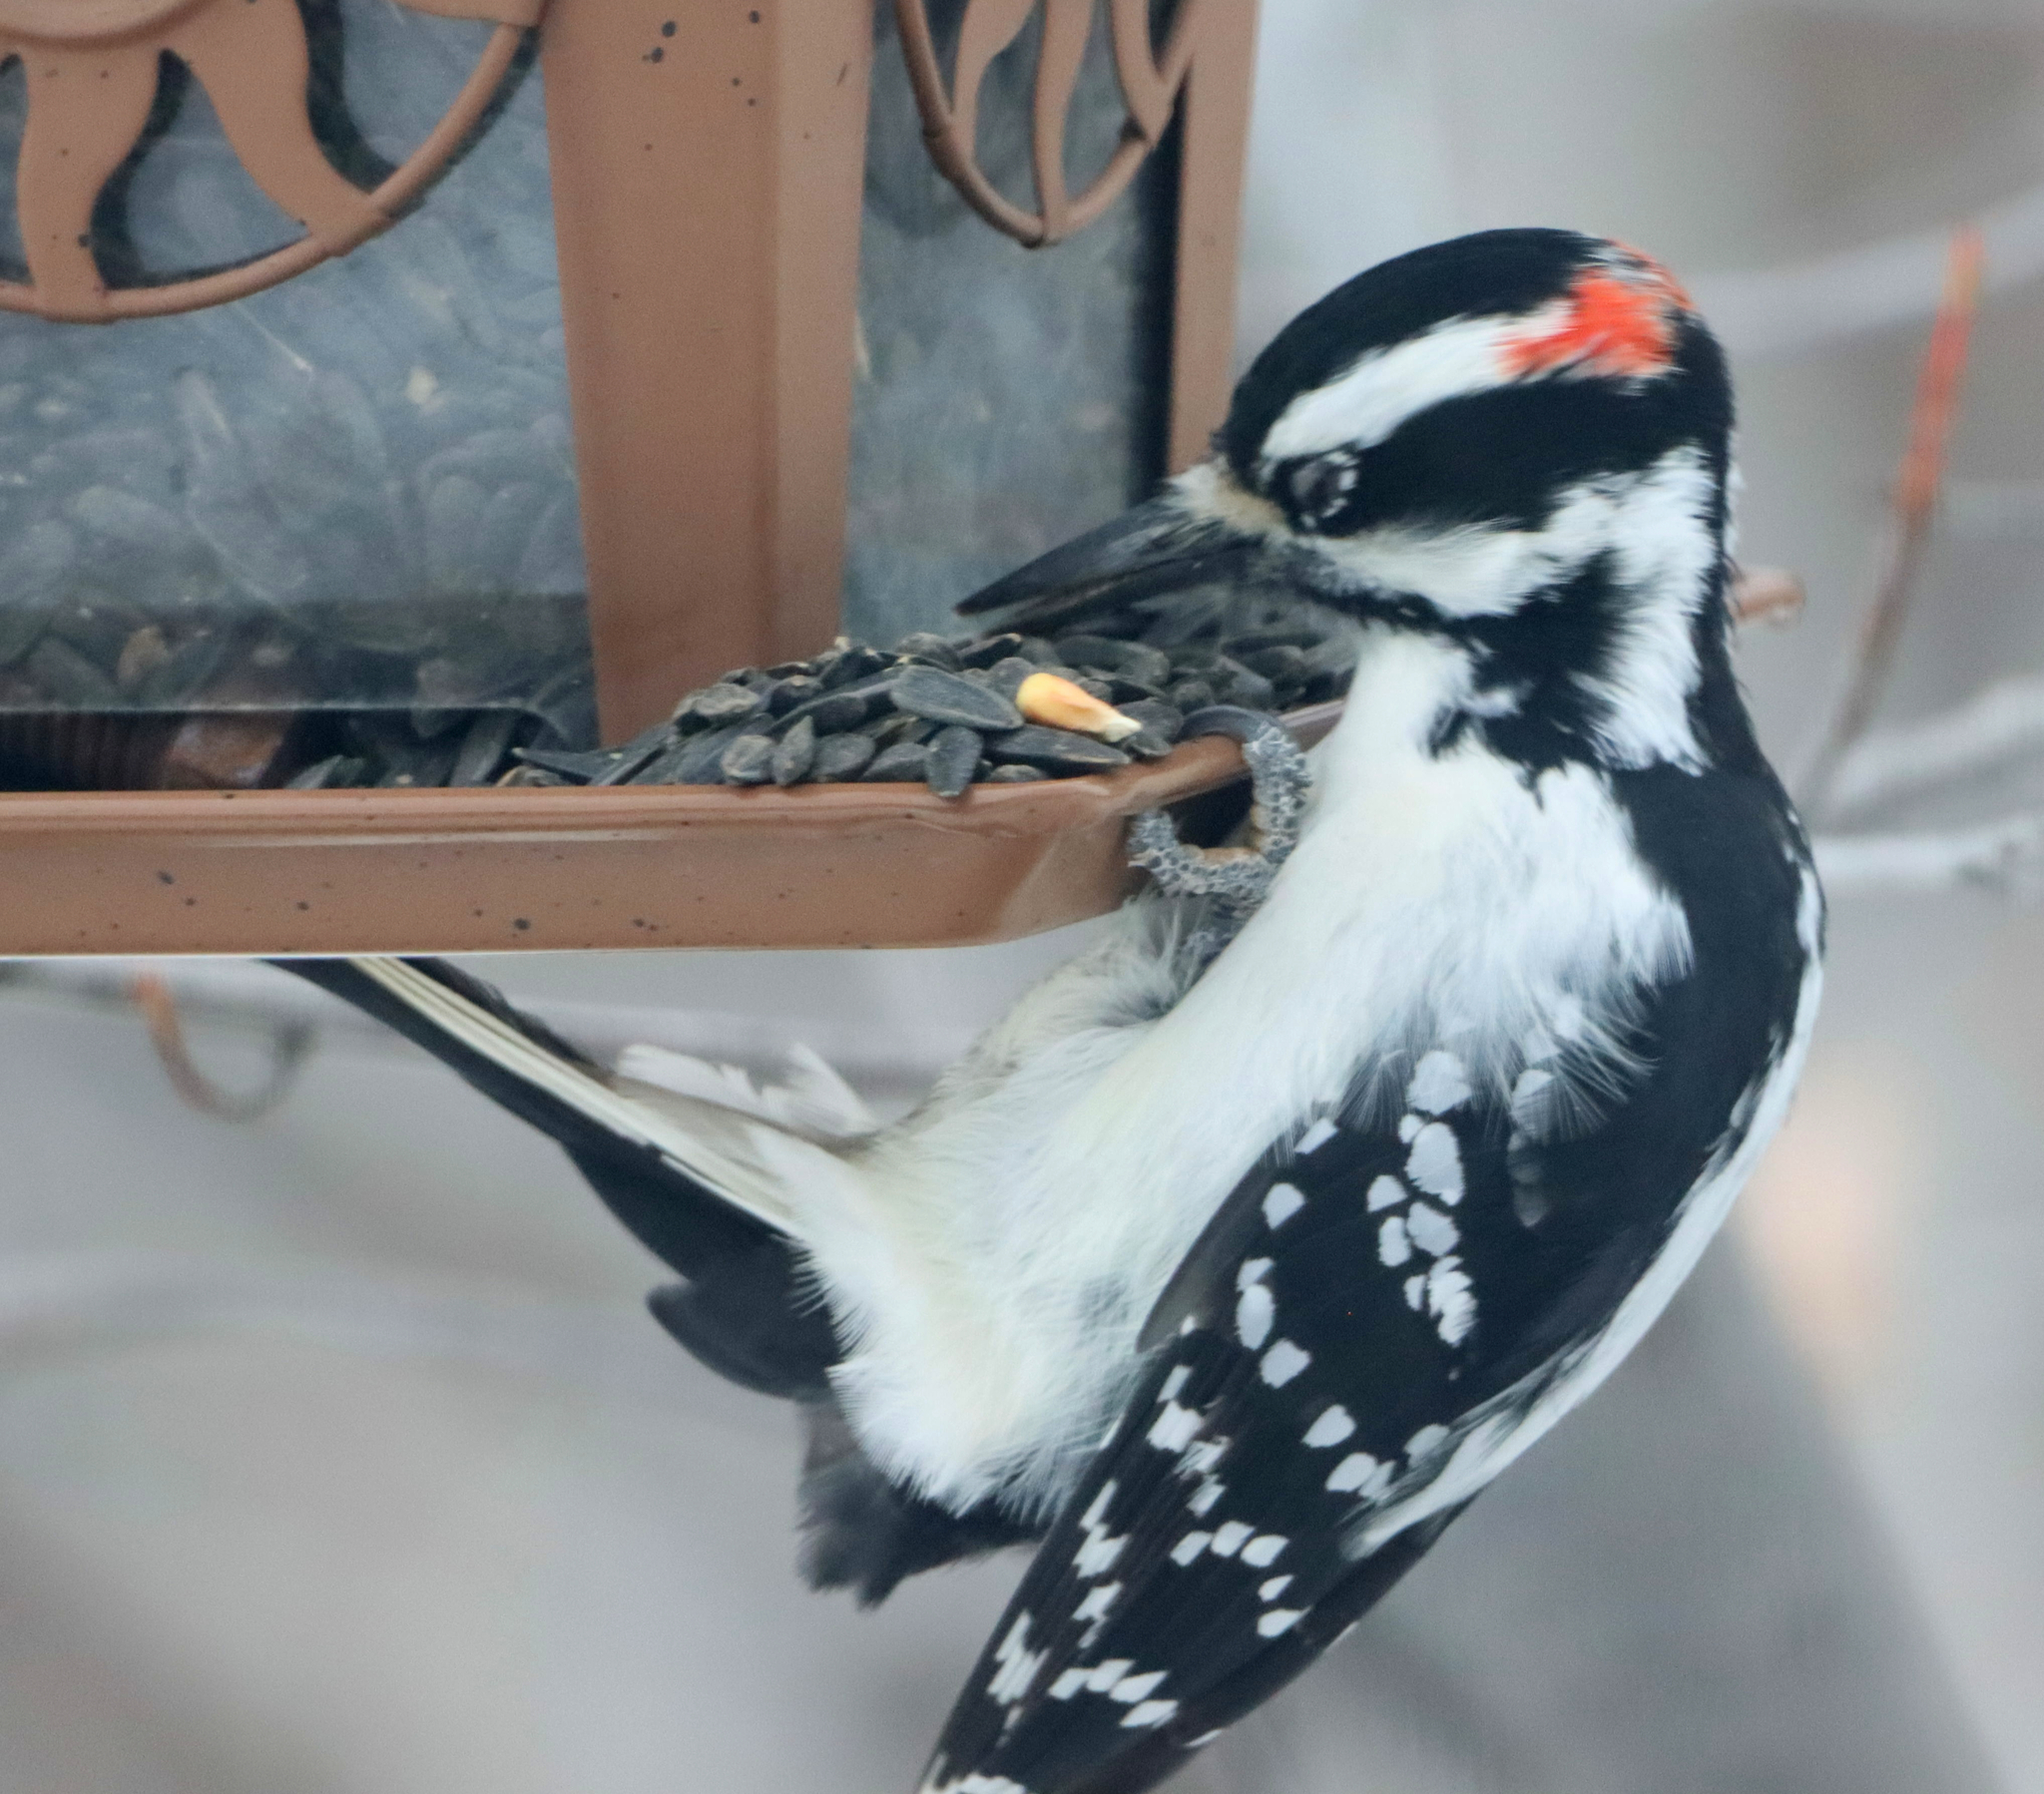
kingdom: Animalia
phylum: Chordata
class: Aves
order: Piciformes
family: Picidae
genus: Leuconotopicus
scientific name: Leuconotopicus villosus
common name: Hairy woodpecker
